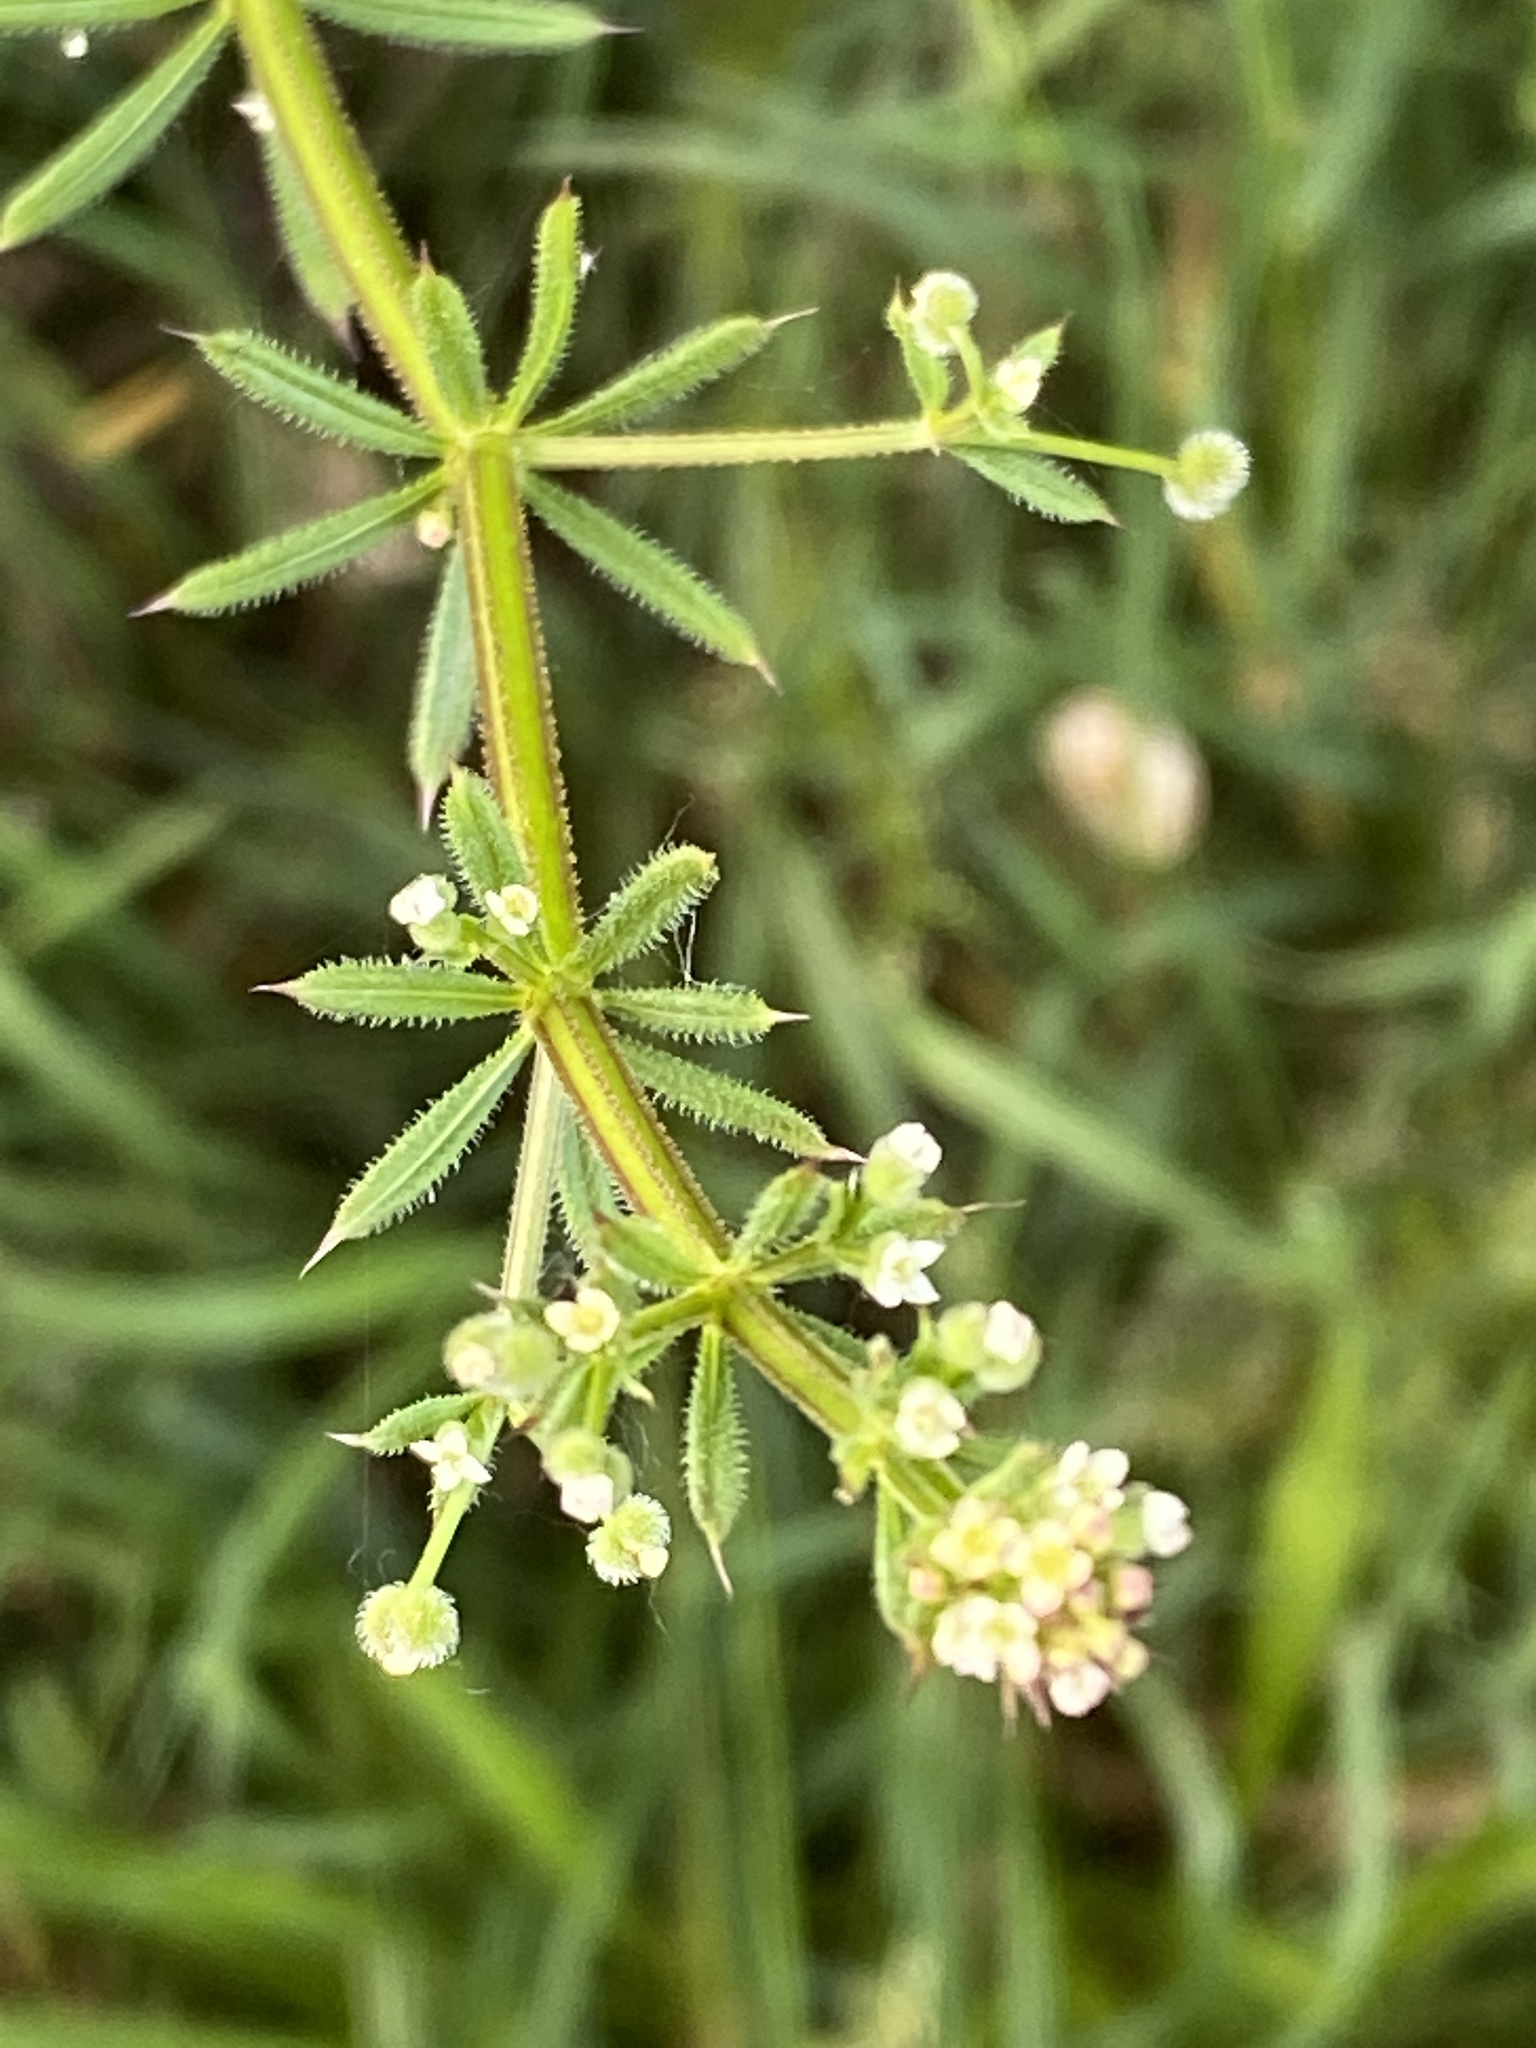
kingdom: Plantae
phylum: Tracheophyta
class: Magnoliopsida
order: Gentianales
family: Rubiaceae
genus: Galium
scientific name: Galium aparine
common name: Cleavers
